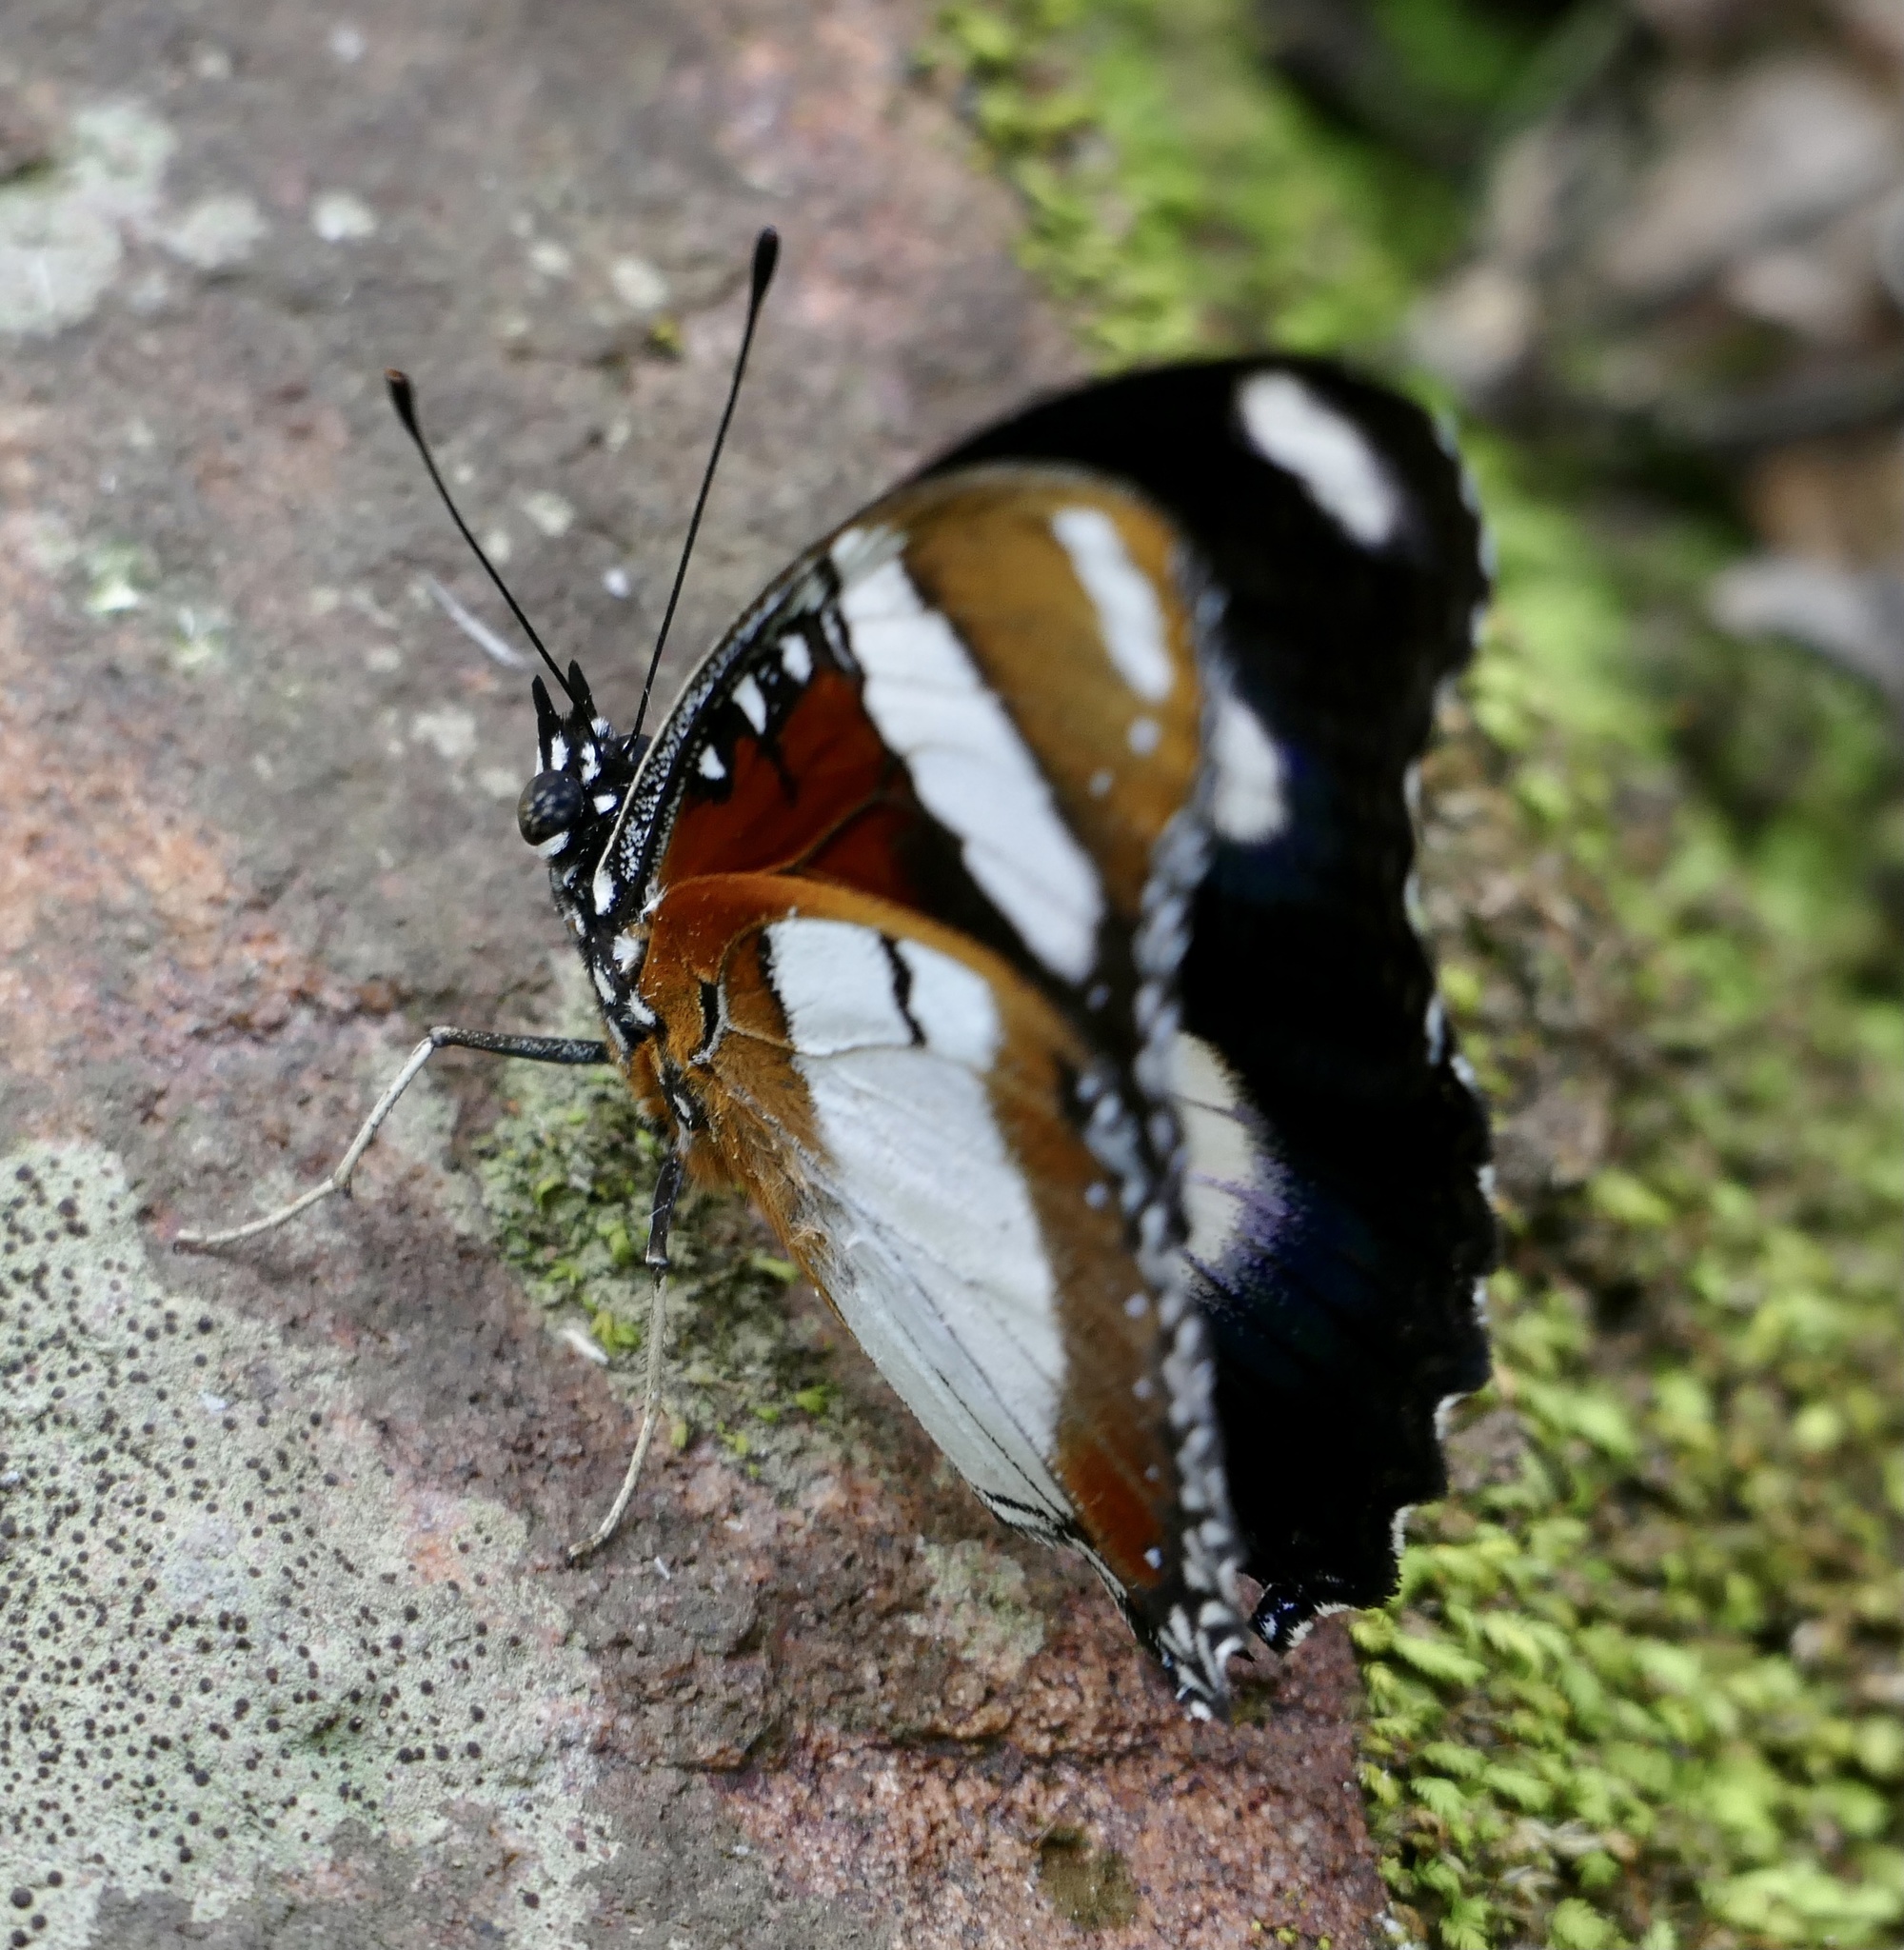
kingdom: Animalia
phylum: Arthropoda
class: Insecta
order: Lepidoptera
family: Nymphalidae
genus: Hypolimnas
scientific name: Hypolimnas misippus
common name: False plain tiger
